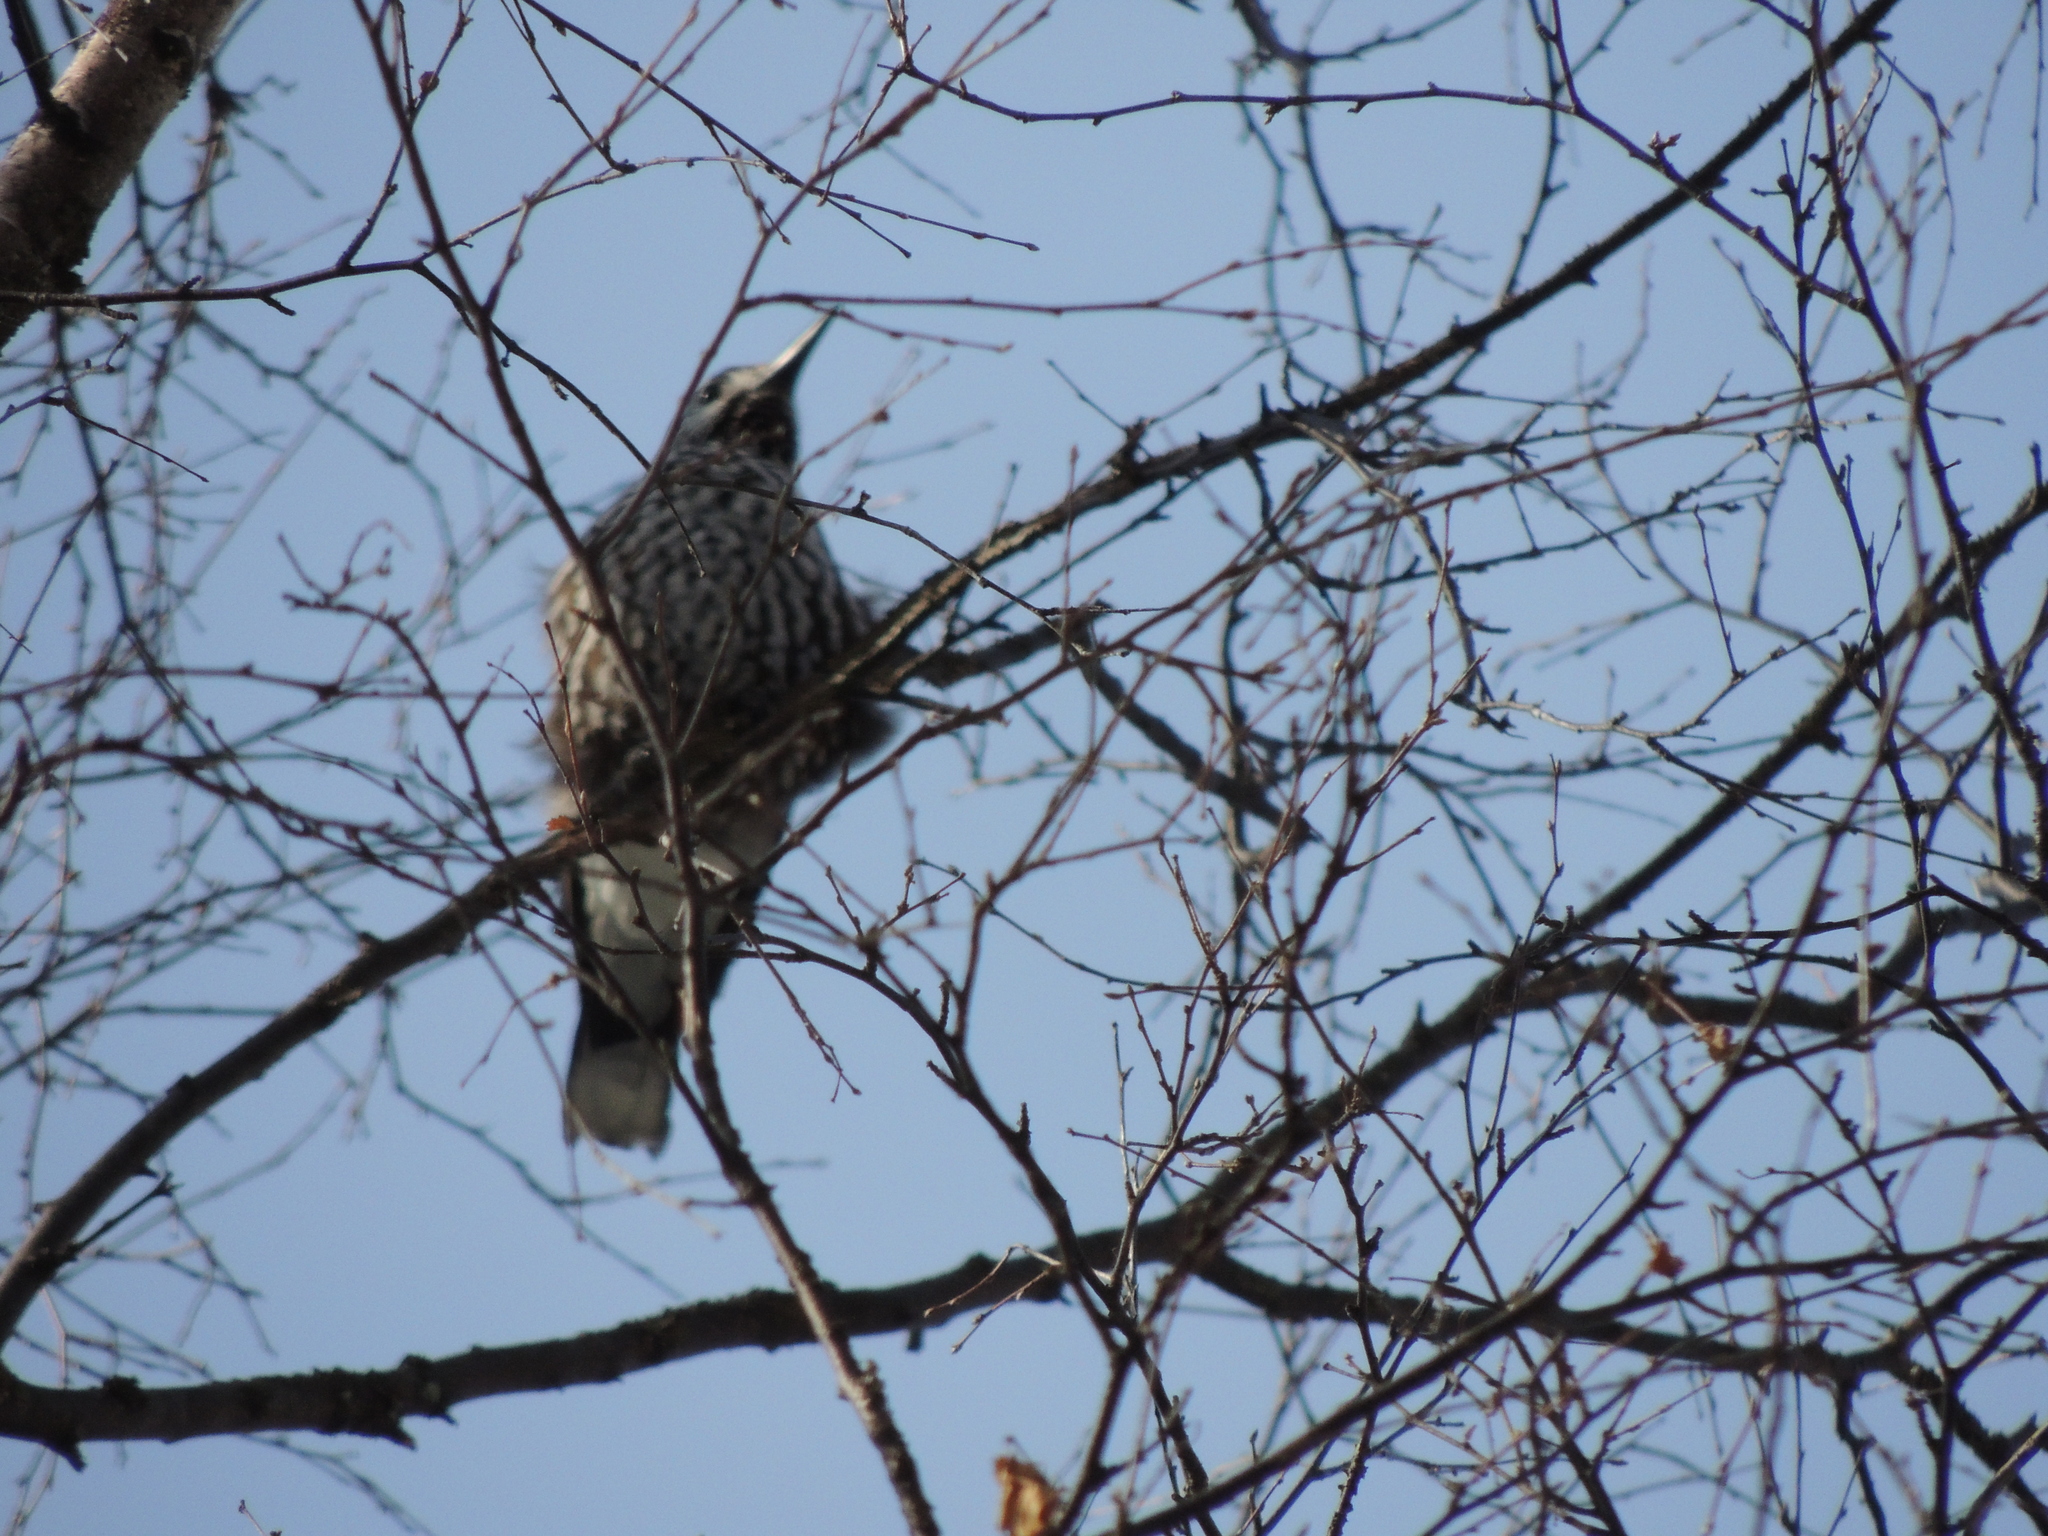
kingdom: Animalia
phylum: Chordata
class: Aves
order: Passeriformes
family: Corvidae
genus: Nucifraga
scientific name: Nucifraga caryocatactes
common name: Spotted nutcracker
